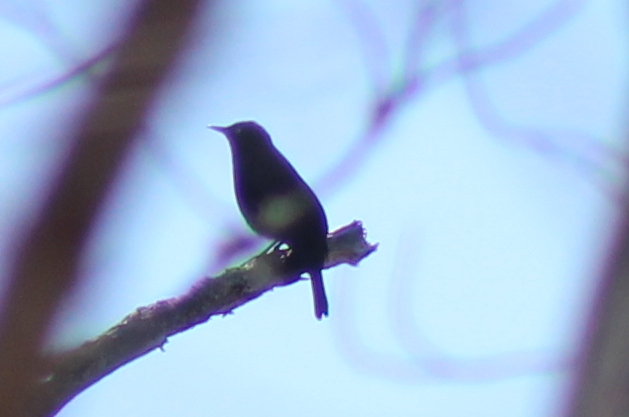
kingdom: Animalia
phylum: Chordata
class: Aves
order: Passeriformes
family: Icteridae
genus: Euphagus
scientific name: Euphagus carolinus
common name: Rusty blackbird
